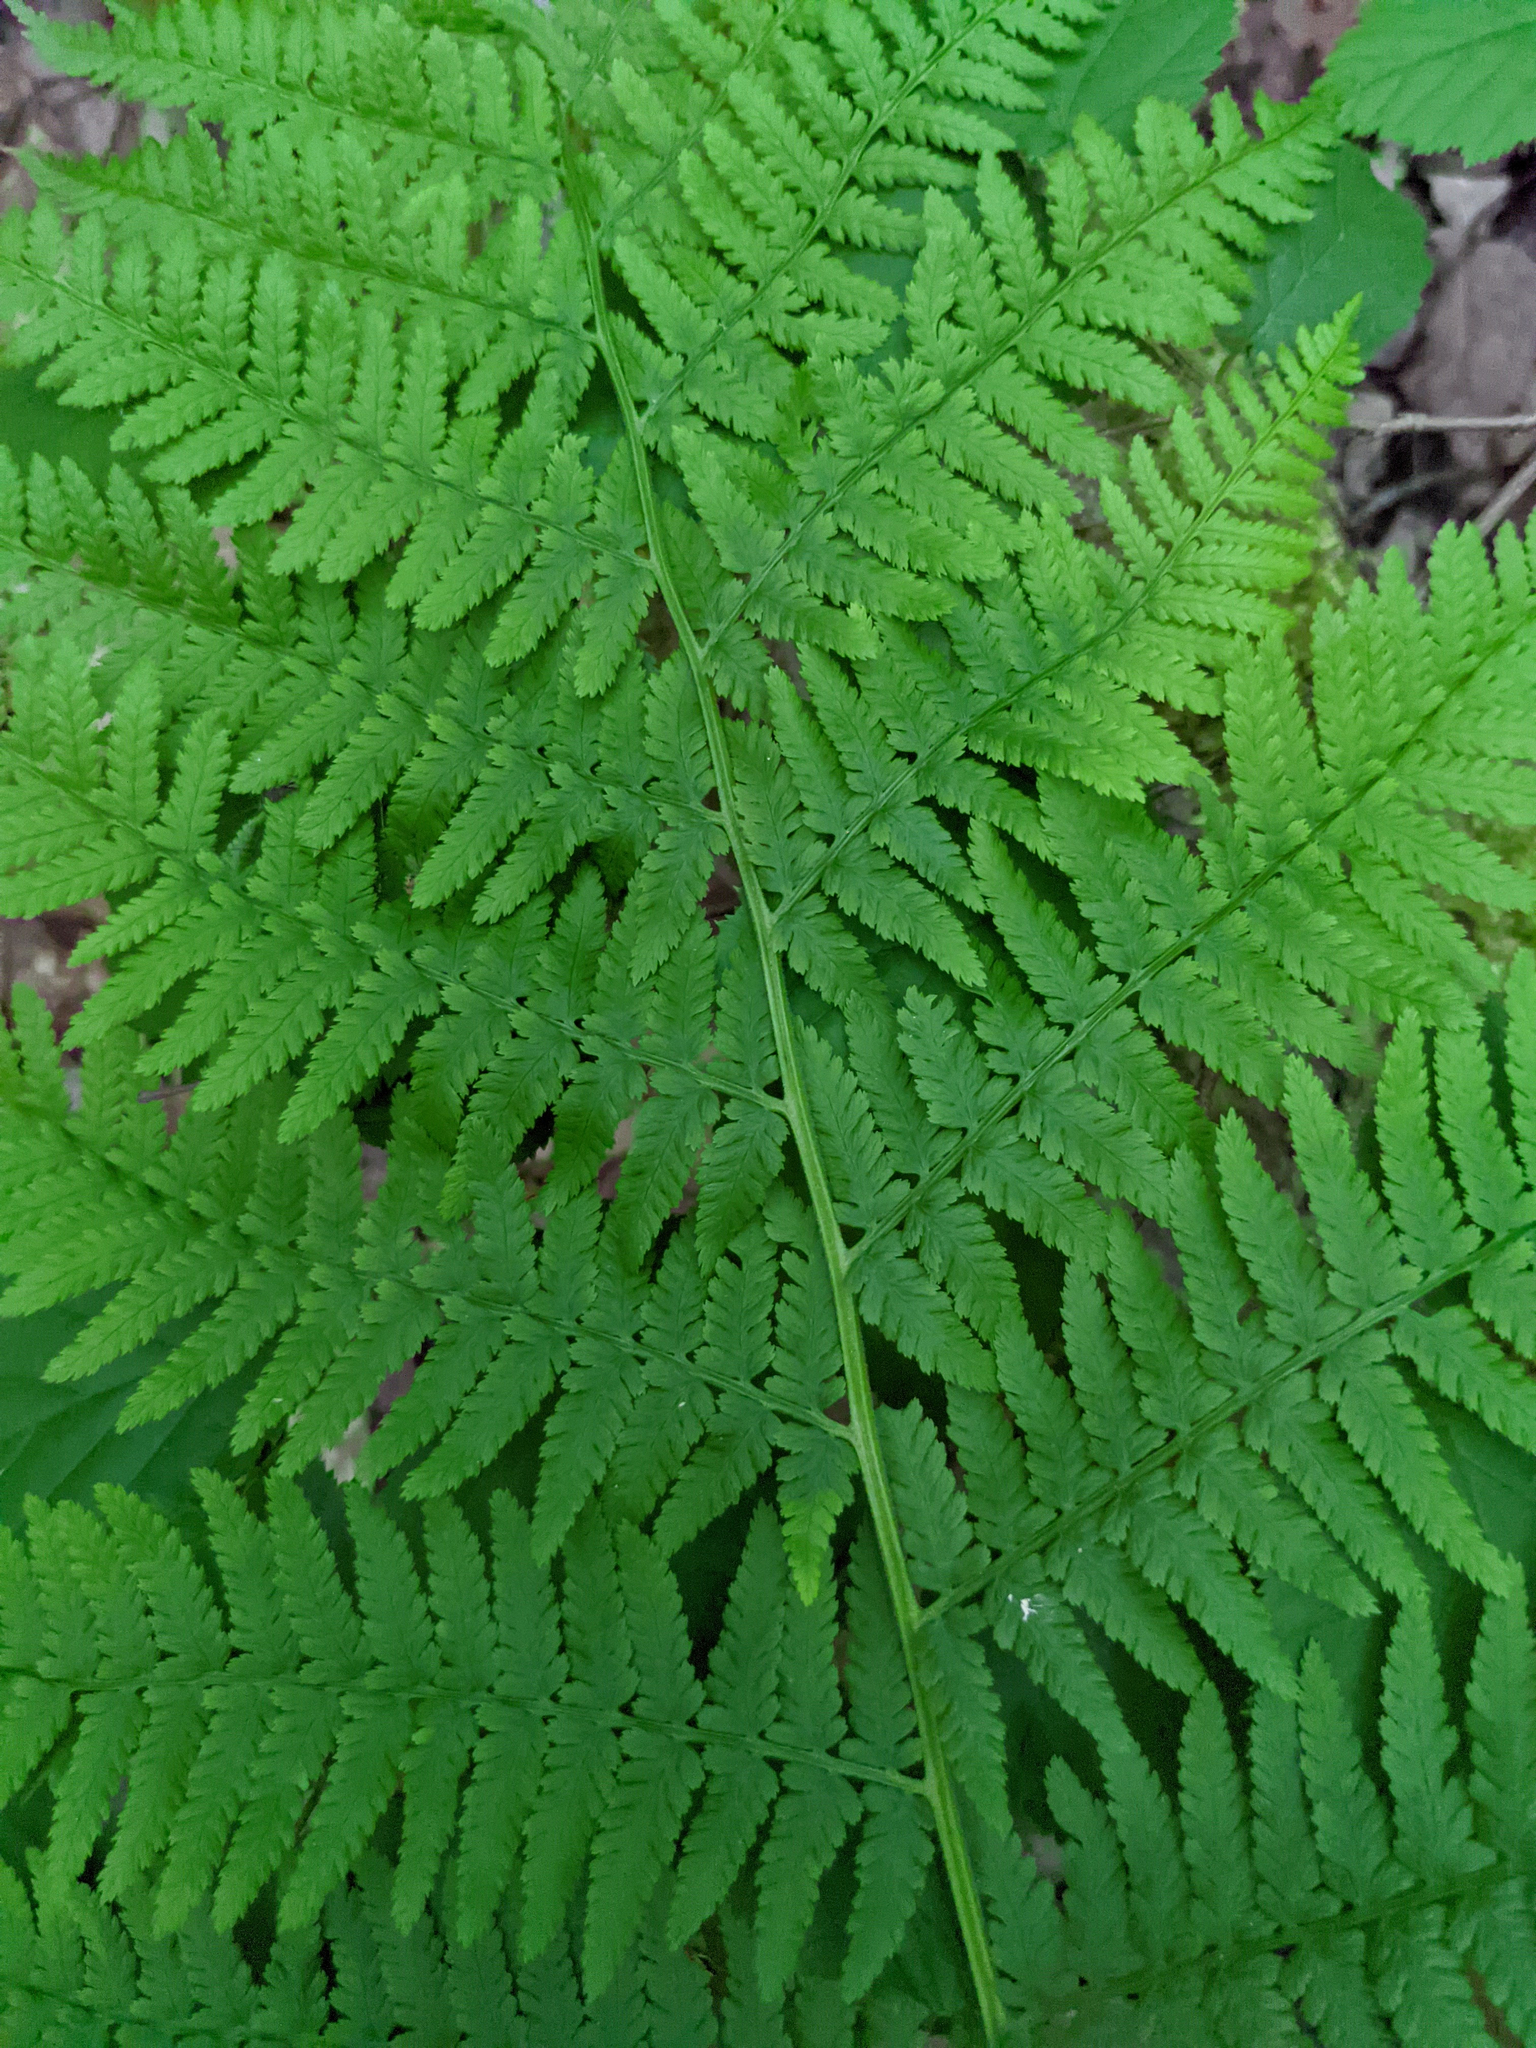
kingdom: Plantae
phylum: Tracheophyta
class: Polypodiopsida
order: Polypodiales
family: Athyriaceae
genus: Athyrium
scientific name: Athyrium angustum
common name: Northern lady fern
